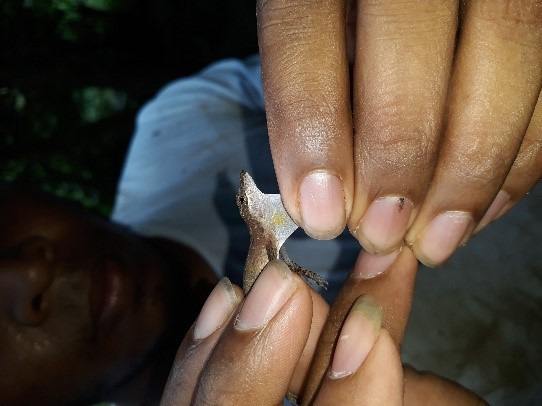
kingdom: Animalia
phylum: Chordata
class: Squamata
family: Dactyloidae
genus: Anolis
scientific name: Anolis limifrons
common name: Border anole
